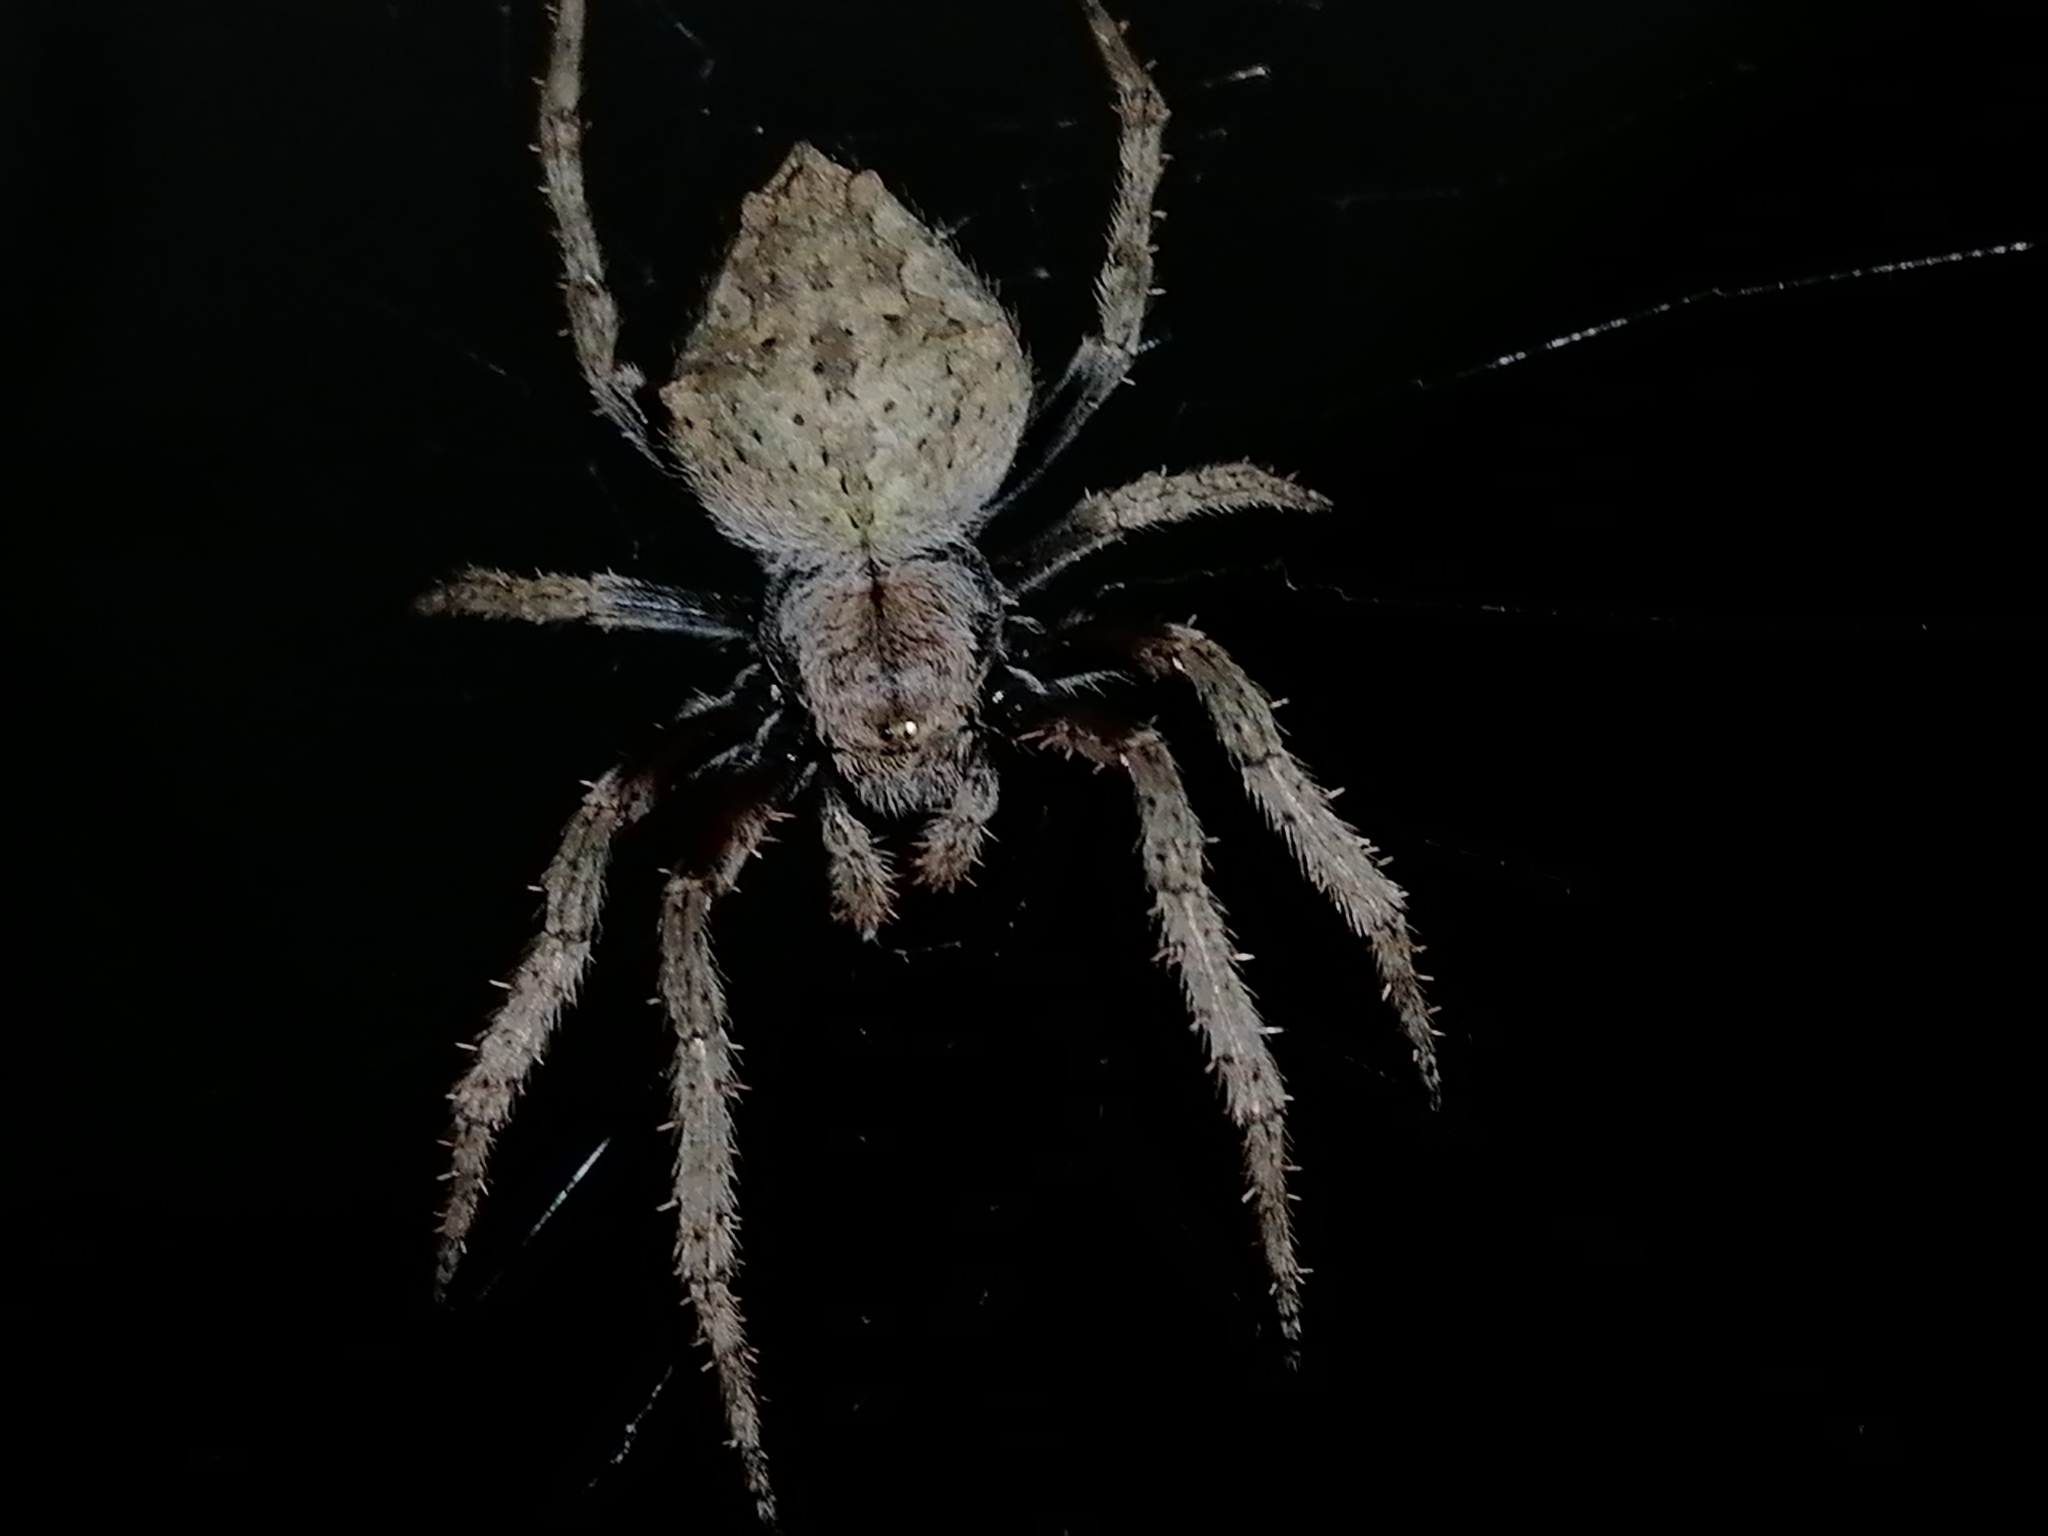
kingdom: Animalia
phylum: Arthropoda
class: Arachnida
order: Araneae
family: Araneidae
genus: Eriophora
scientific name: Eriophora pustulosa
